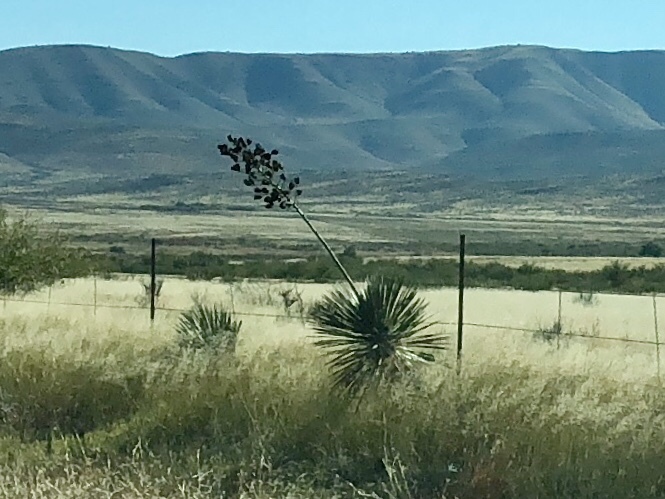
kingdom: Plantae
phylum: Tracheophyta
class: Liliopsida
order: Asparagales
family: Asparagaceae
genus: Yucca
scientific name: Yucca elata
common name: Palmella
